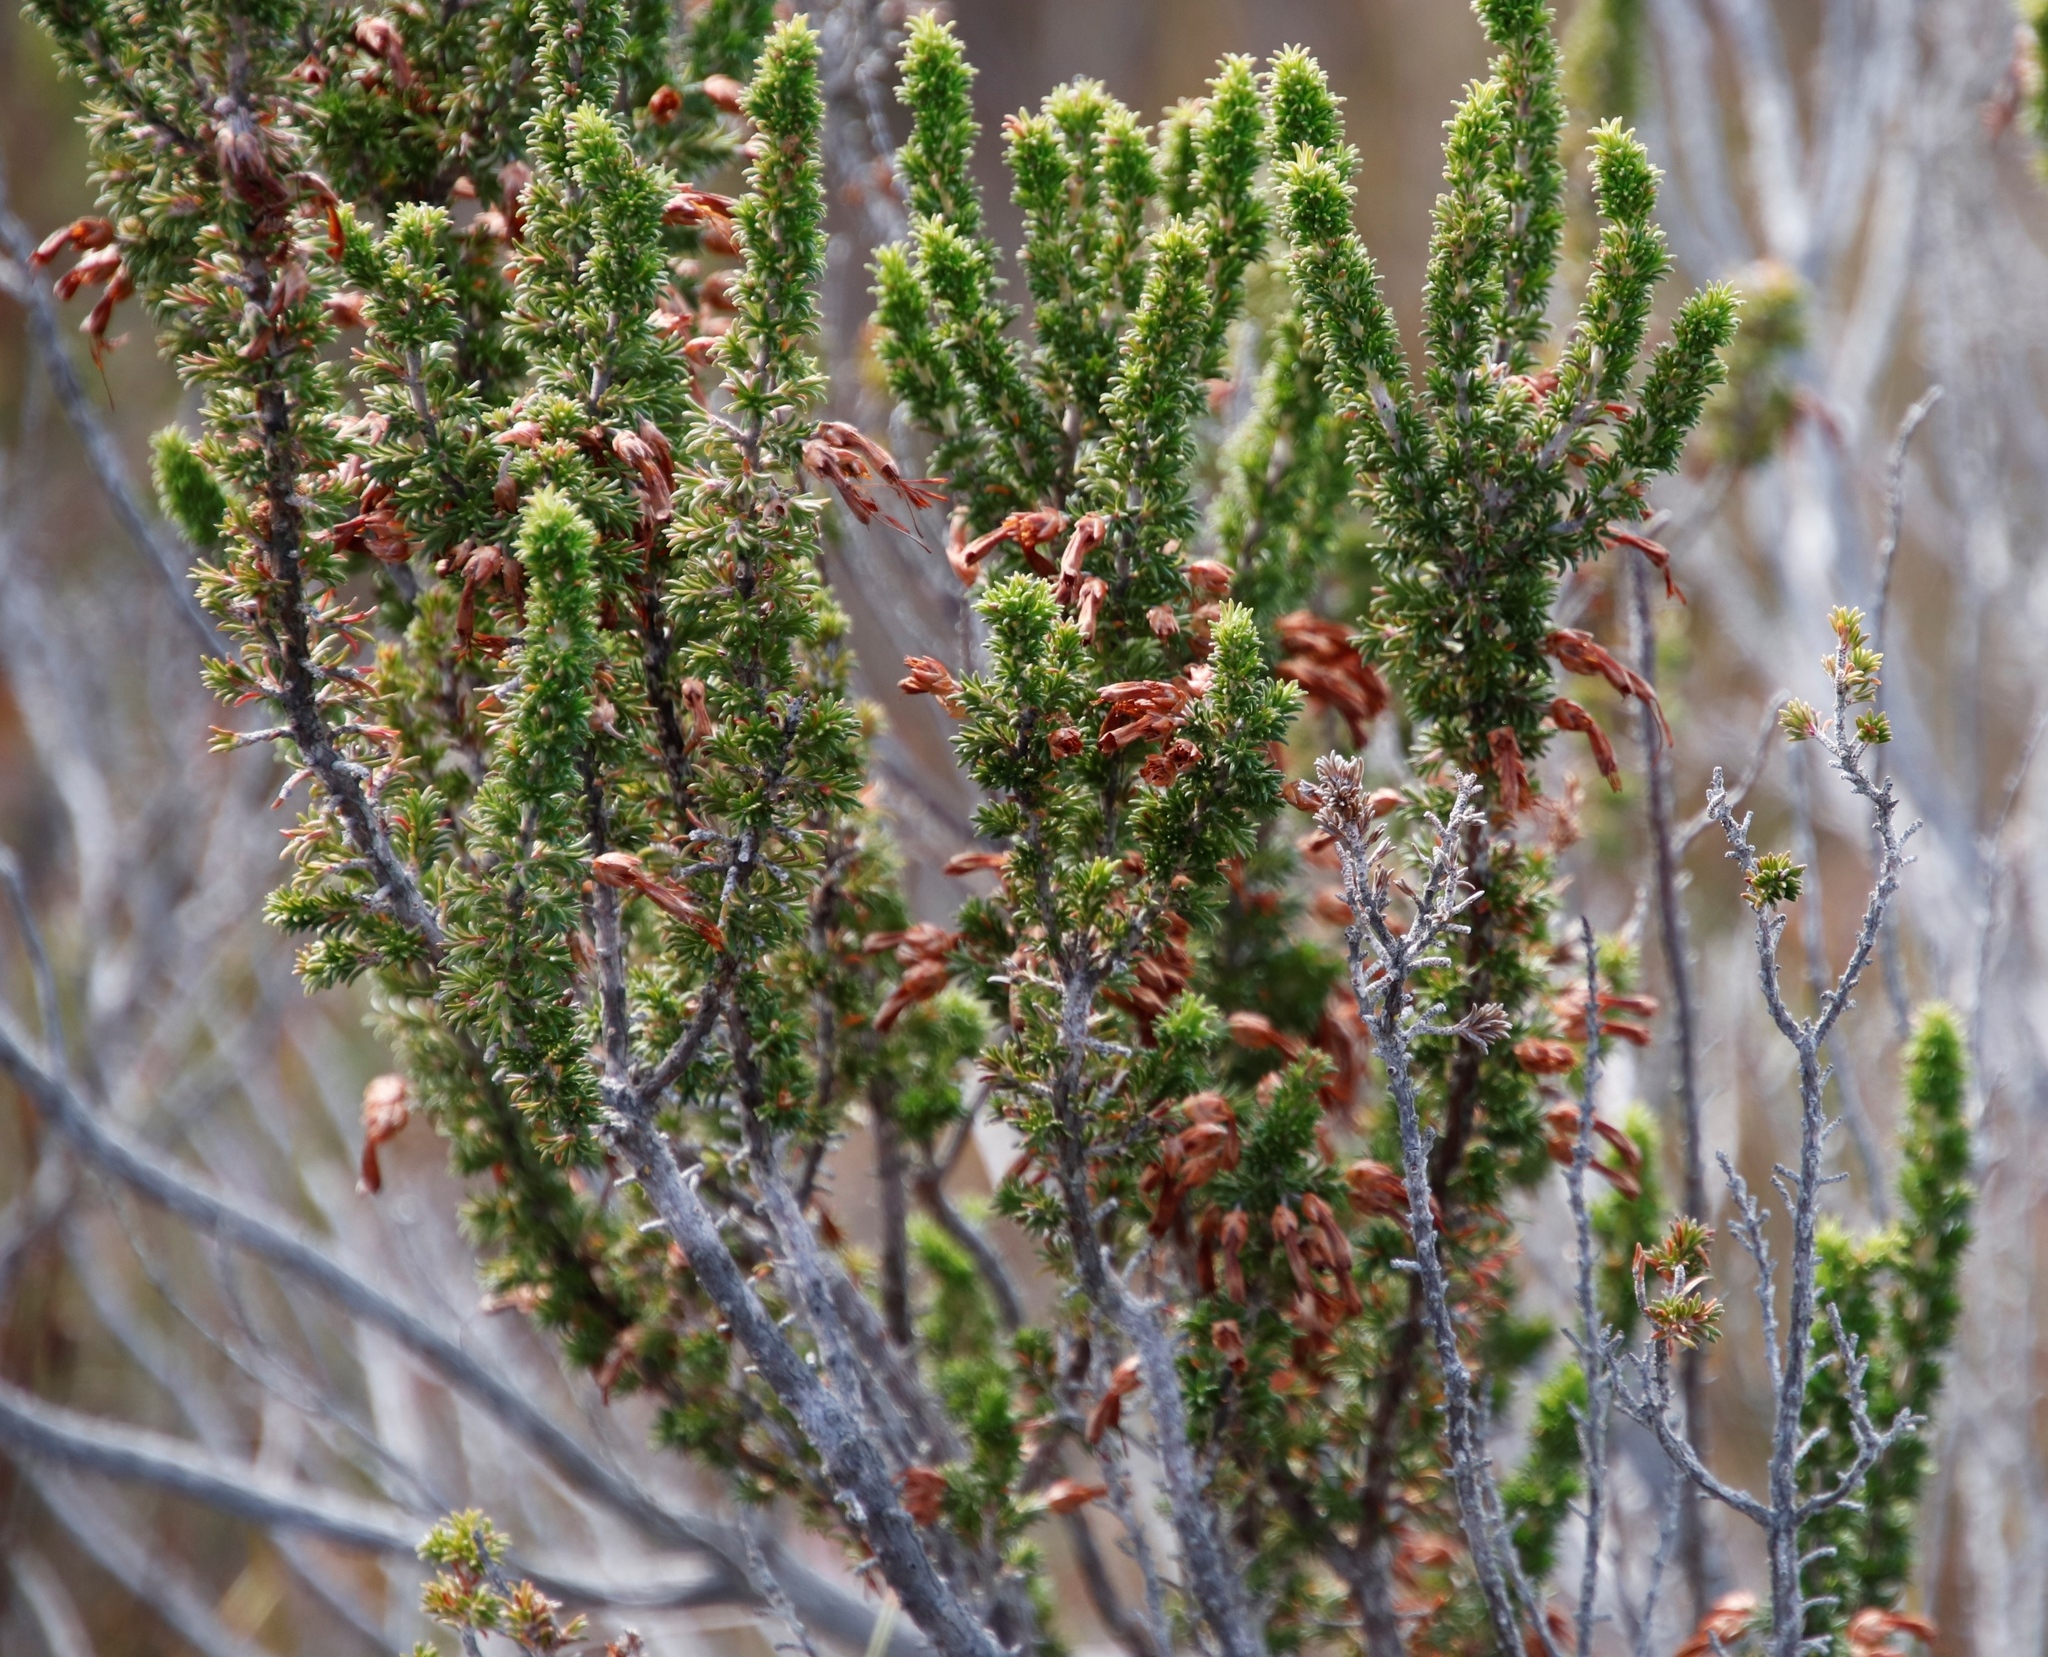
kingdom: Plantae
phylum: Tracheophyta
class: Magnoliopsida
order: Ericales
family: Ericaceae
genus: Erica
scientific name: Erica coccinea
